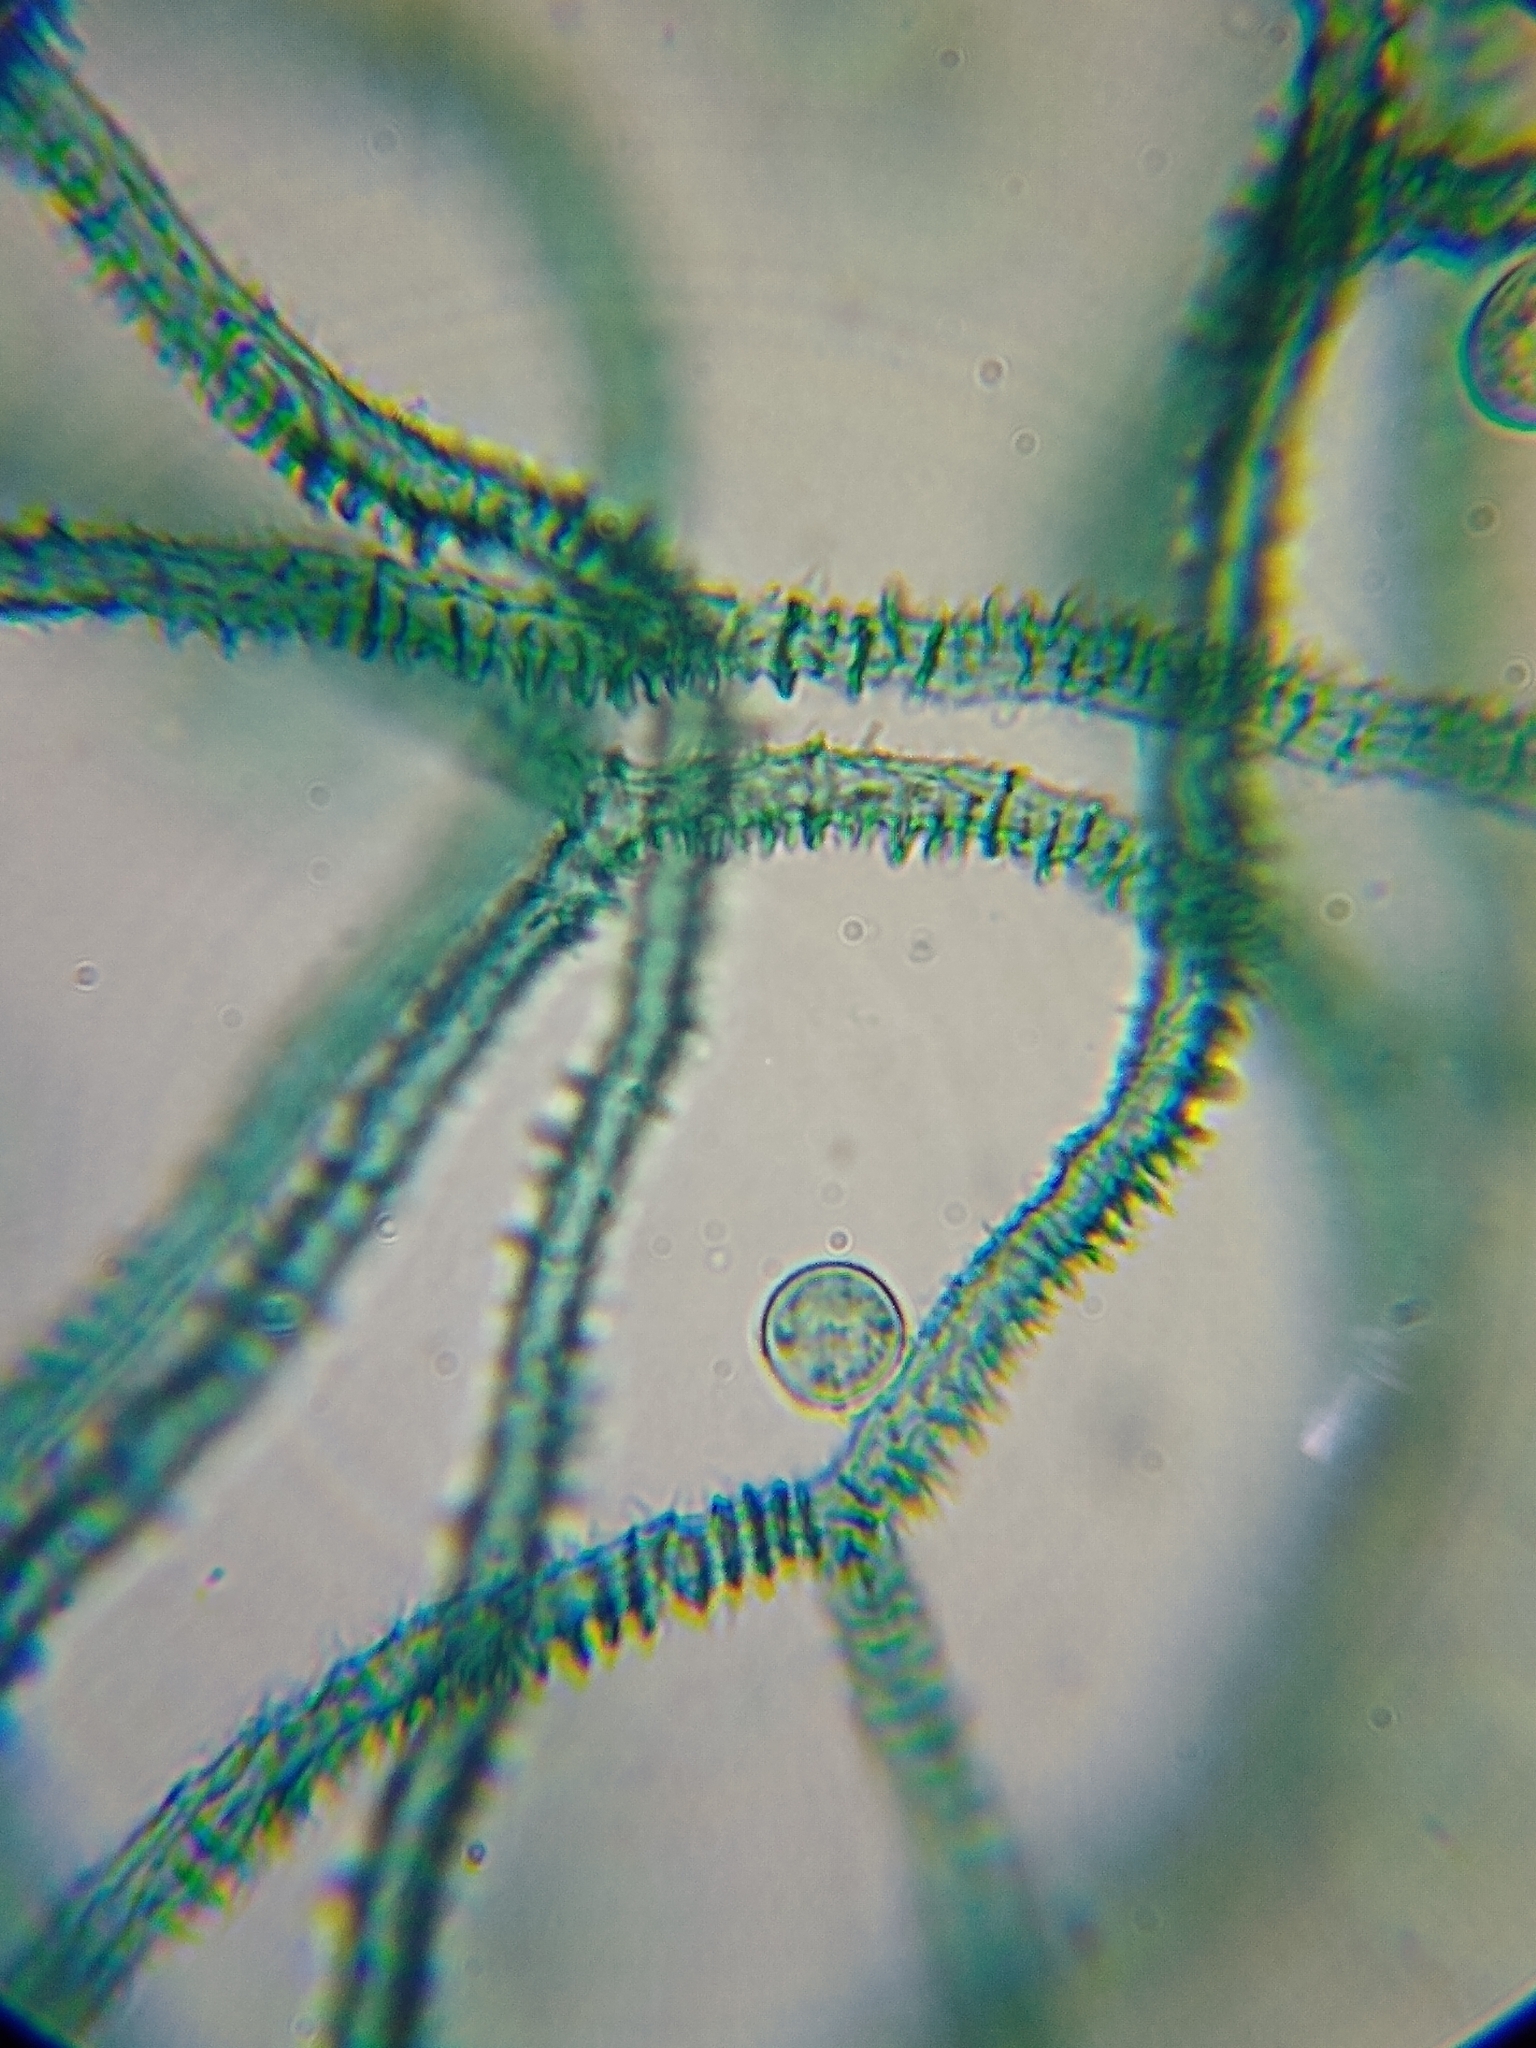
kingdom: Protozoa
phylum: Mycetozoa
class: Myxomycetes
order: Trichiales
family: Arcyriaceae
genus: Arcyria
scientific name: Arcyria obvelata
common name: Yellow carnival candy slime
